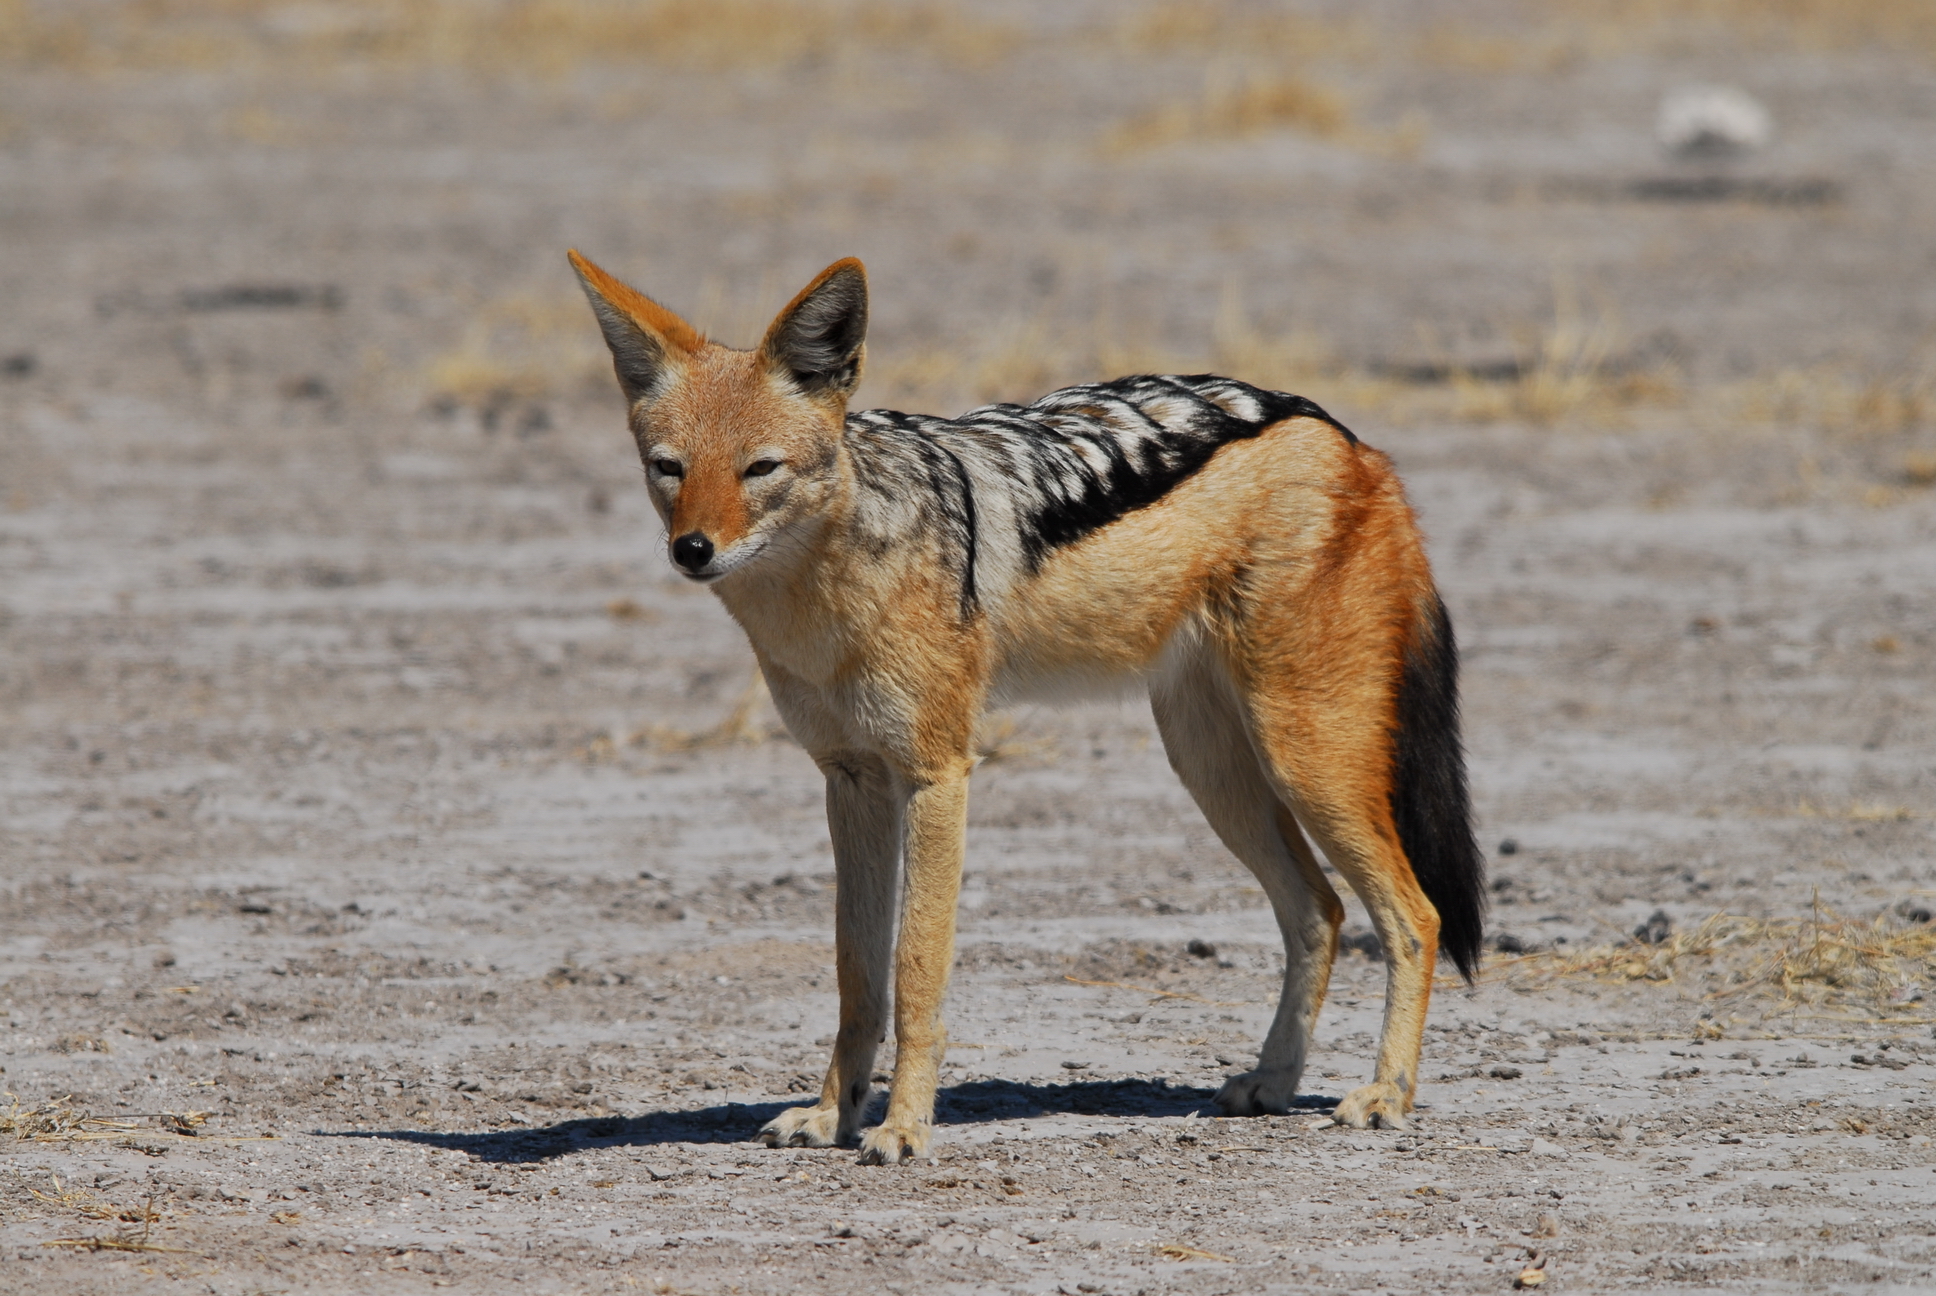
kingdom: Animalia
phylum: Chordata
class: Mammalia
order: Carnivora
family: Canidae
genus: Lupulella
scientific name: Lupulella
